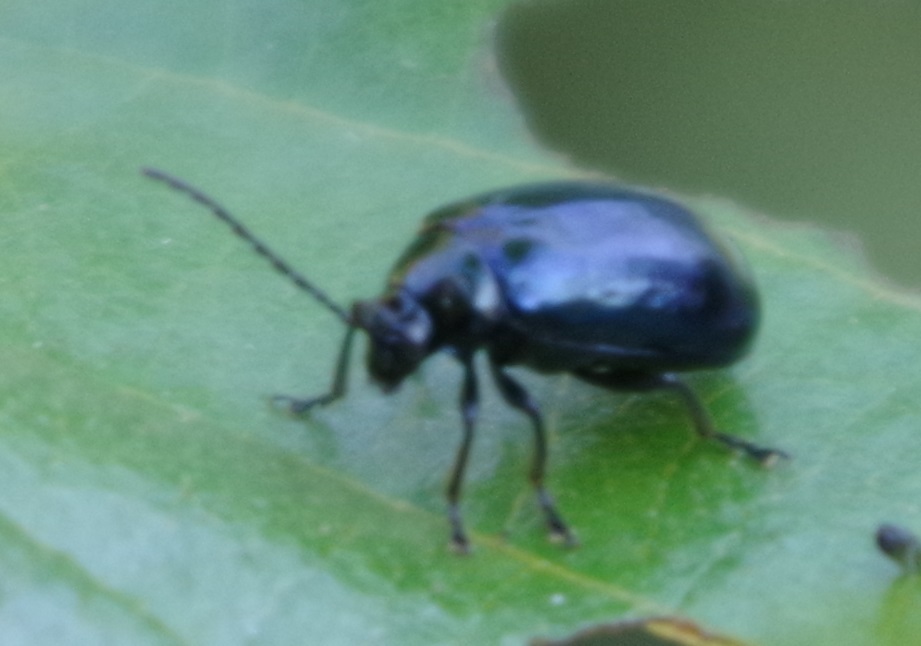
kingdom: Animalia
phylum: Arthropoda
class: Insecta
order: Coleoptera
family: Chrysomelidae
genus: Agelastica
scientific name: Agelastica alni
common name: Alder leaf beetle
